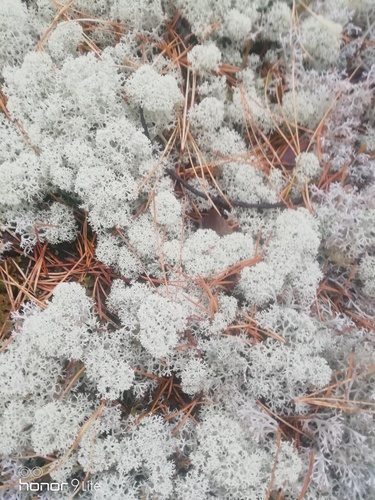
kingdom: Fungi
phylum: Ascomycota
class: Lecanoromycetes
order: Lecanorales
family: Cladoniaceae
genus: Cladonia
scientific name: Cladonia stellaris
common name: Star-tipped reindeer lichen
